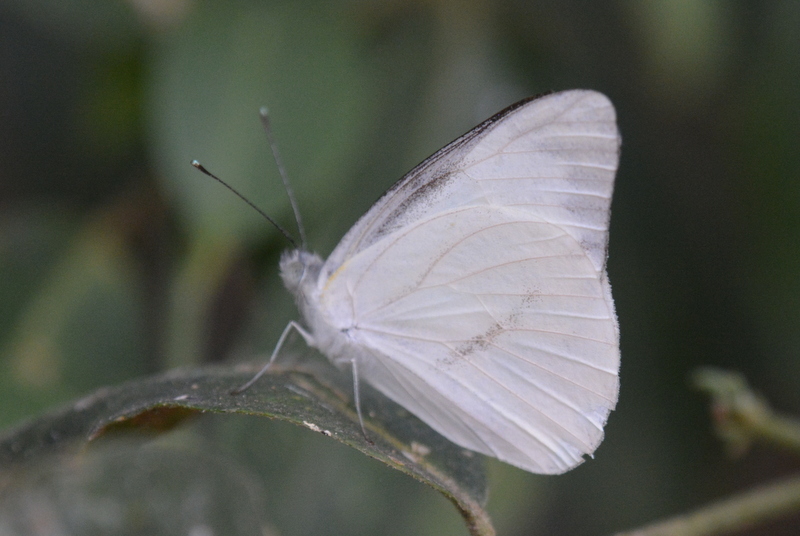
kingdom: Animalia
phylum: Arthropoda
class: Insecta
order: Lepidoptera
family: Pieridae
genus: Appias
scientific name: Appias libythea
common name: Striped albatross
